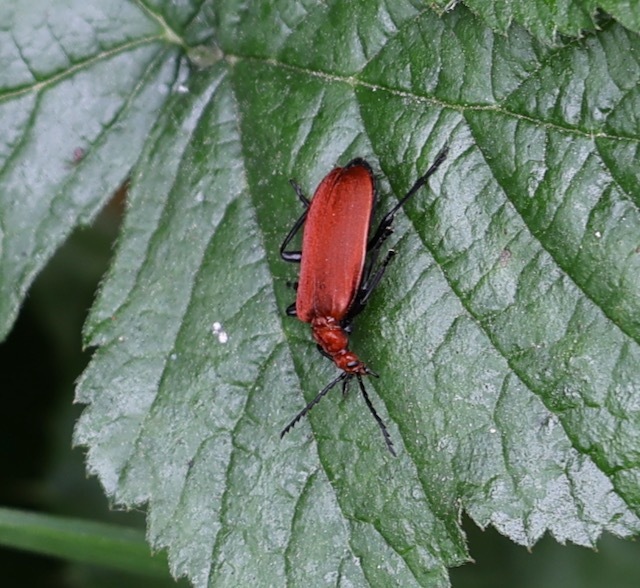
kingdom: Animalia
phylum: Arthropoda
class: Insecta
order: Coleoptera
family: Pyrochroidae
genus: Pyrochroa
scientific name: Pyrochroa serraticornis
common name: Red-headed cardinal beetle
